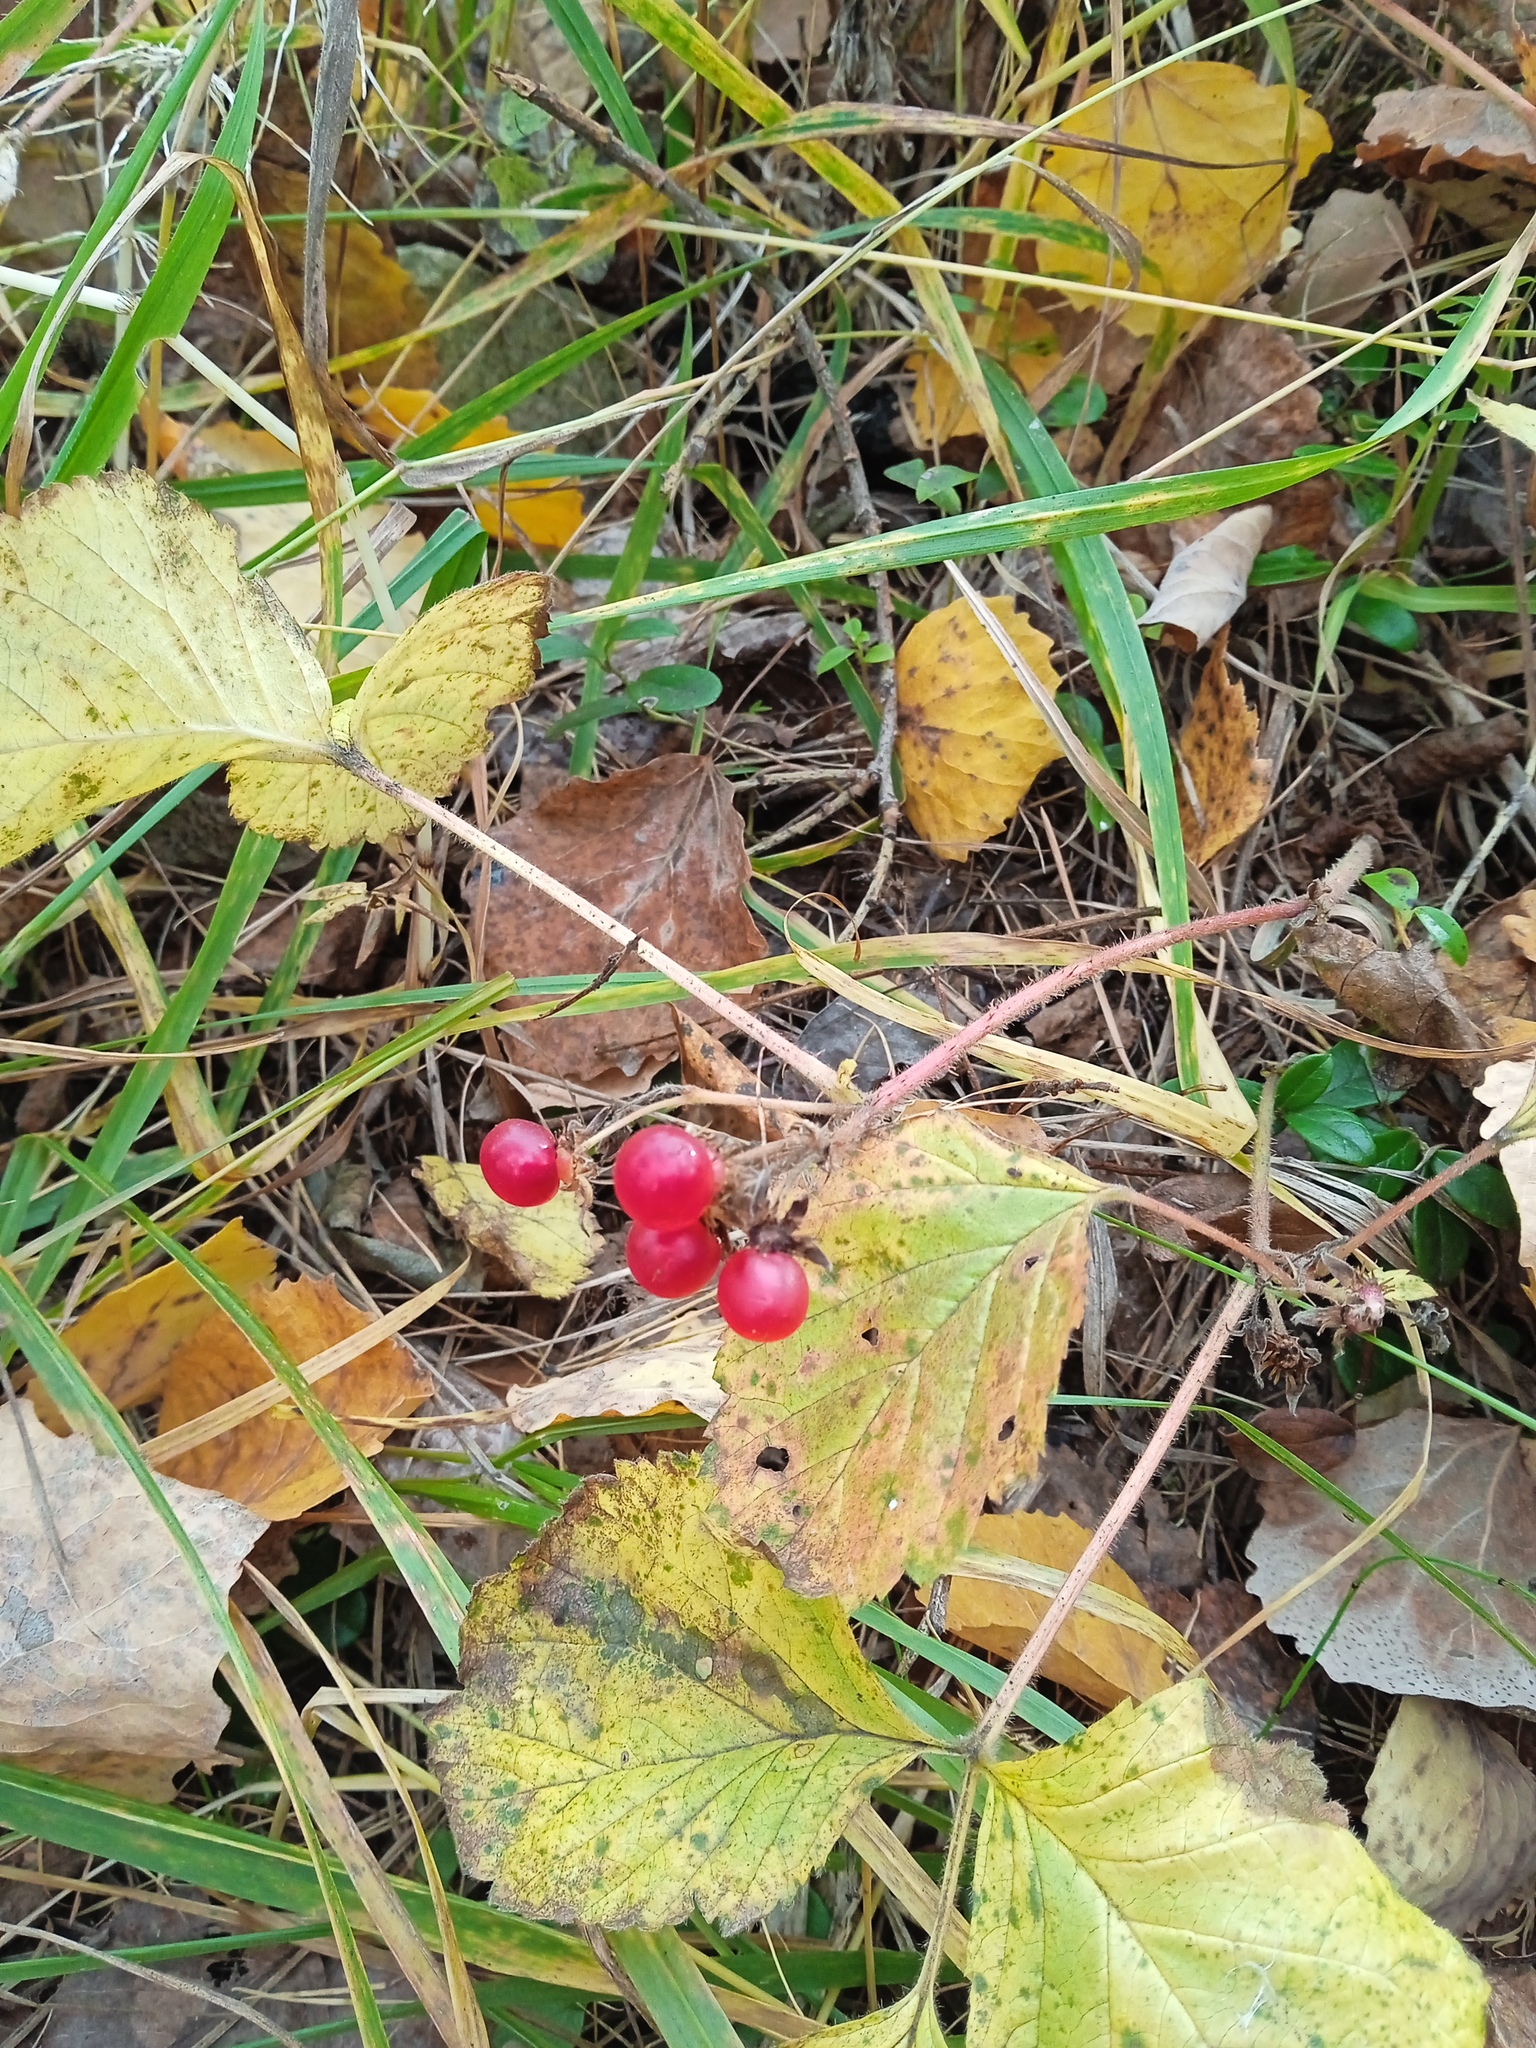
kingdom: Plantae
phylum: Tracheophyta
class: Magnoliopsida
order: Rosales
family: Rosaceae
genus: Rubus
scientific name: Rubus saxatilis
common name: Stone bramble
